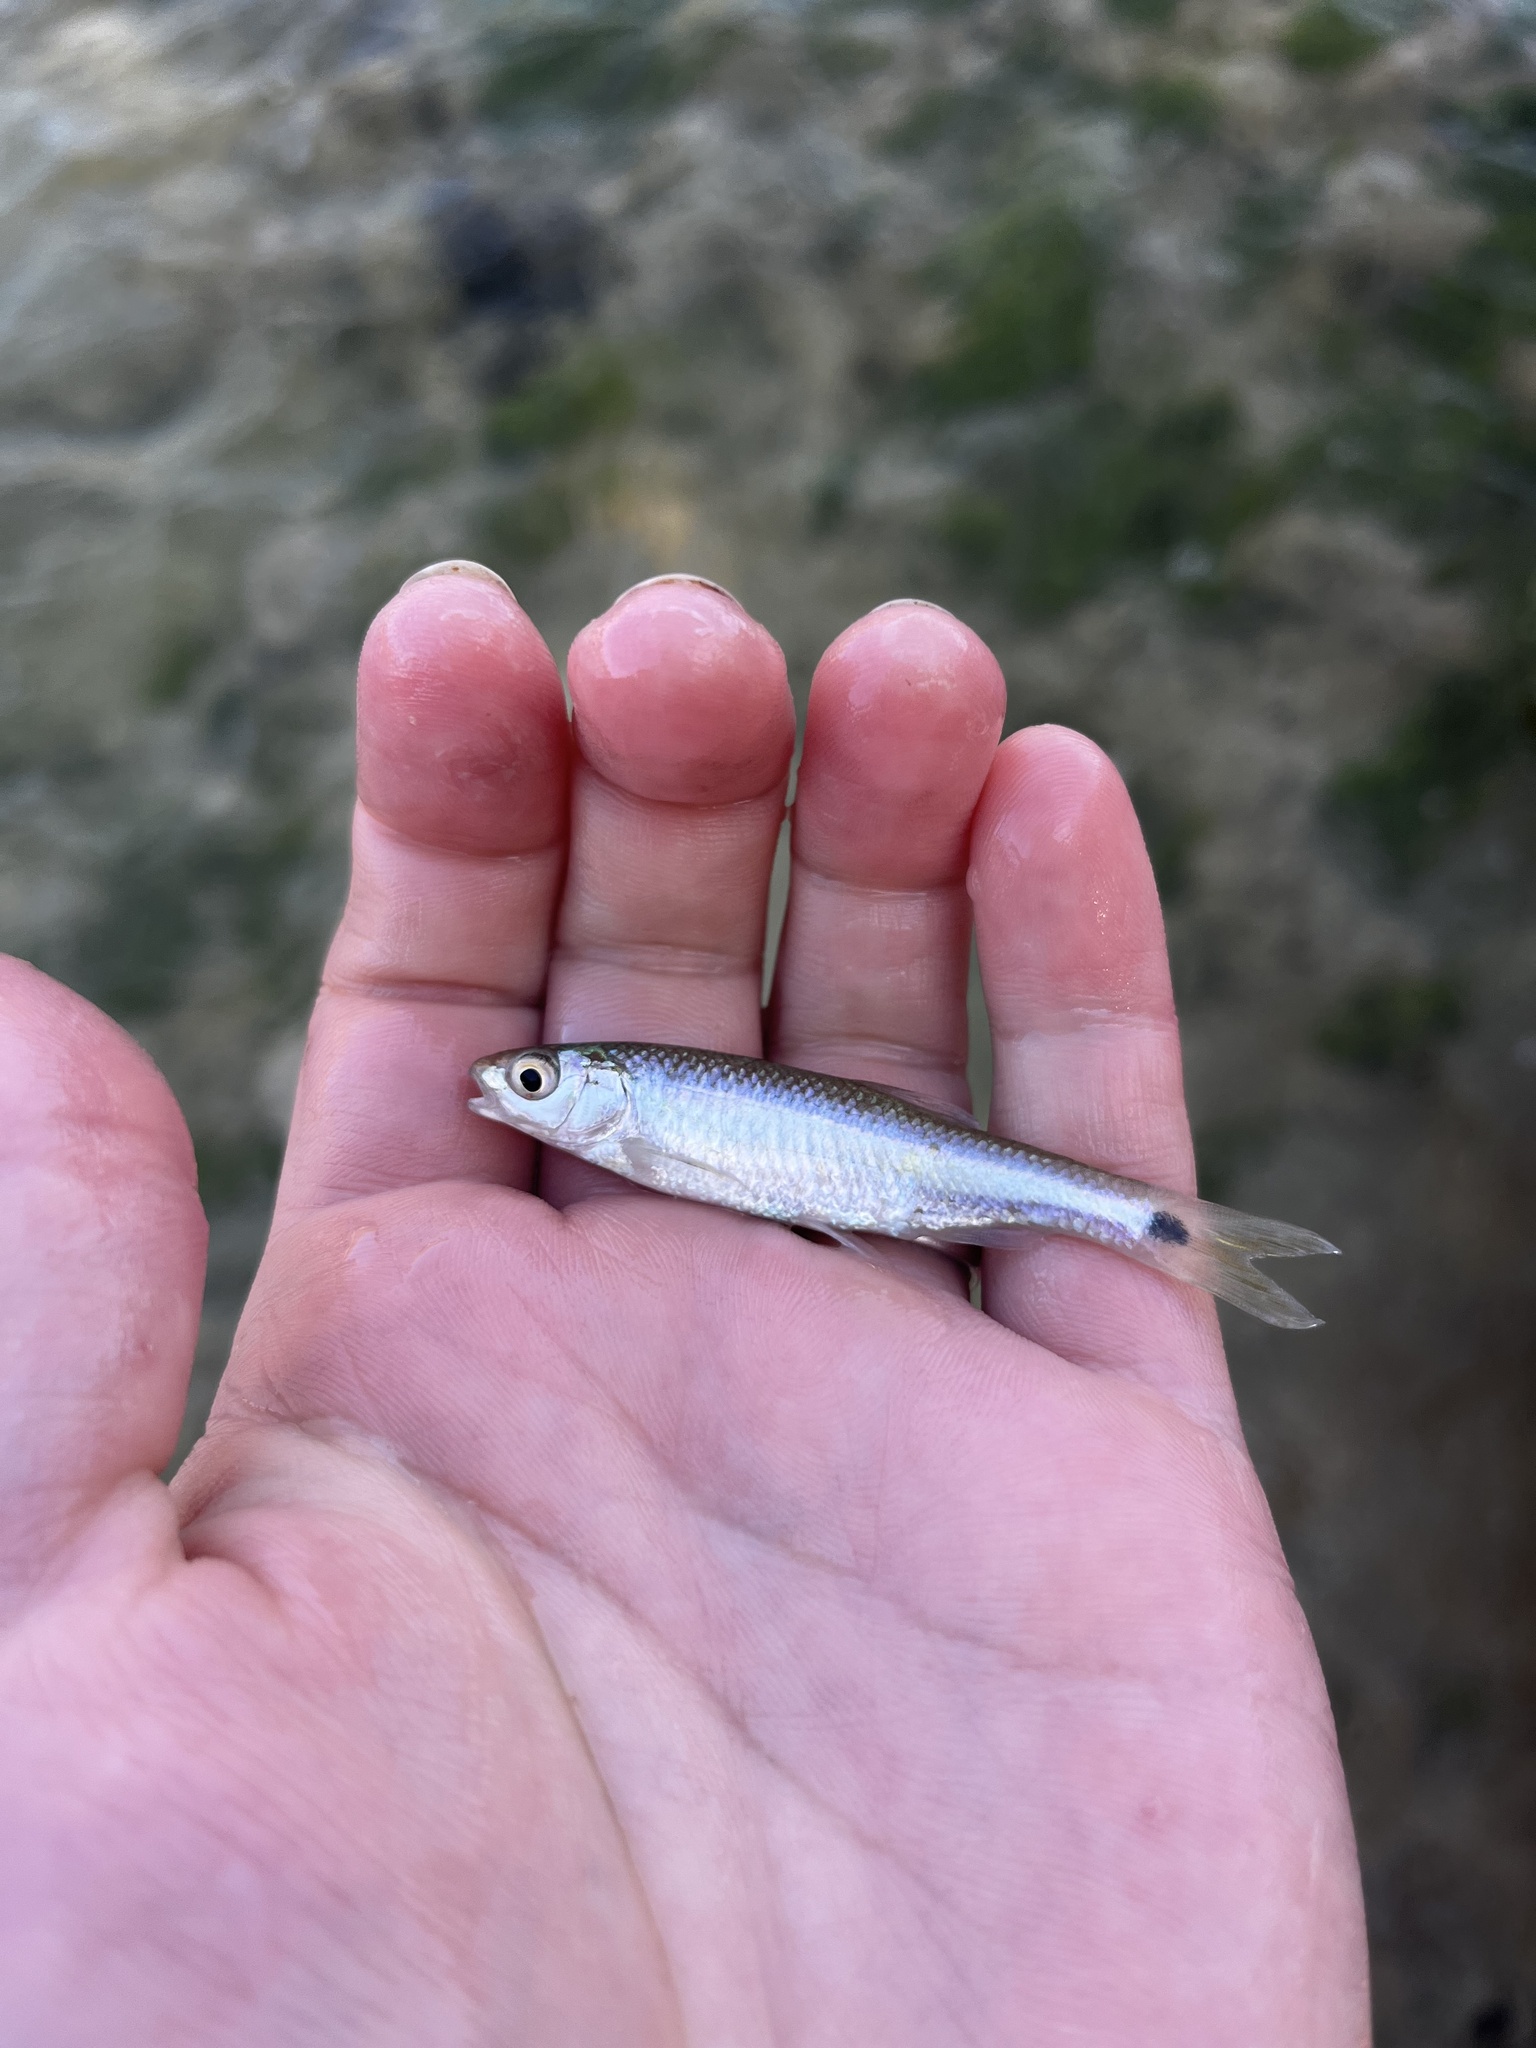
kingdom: Animalia
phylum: Chordata
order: Cypriniformes
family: Cyprinidae
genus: Cyprinella
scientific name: Cyprinella venusta
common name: Blacktail shiner
